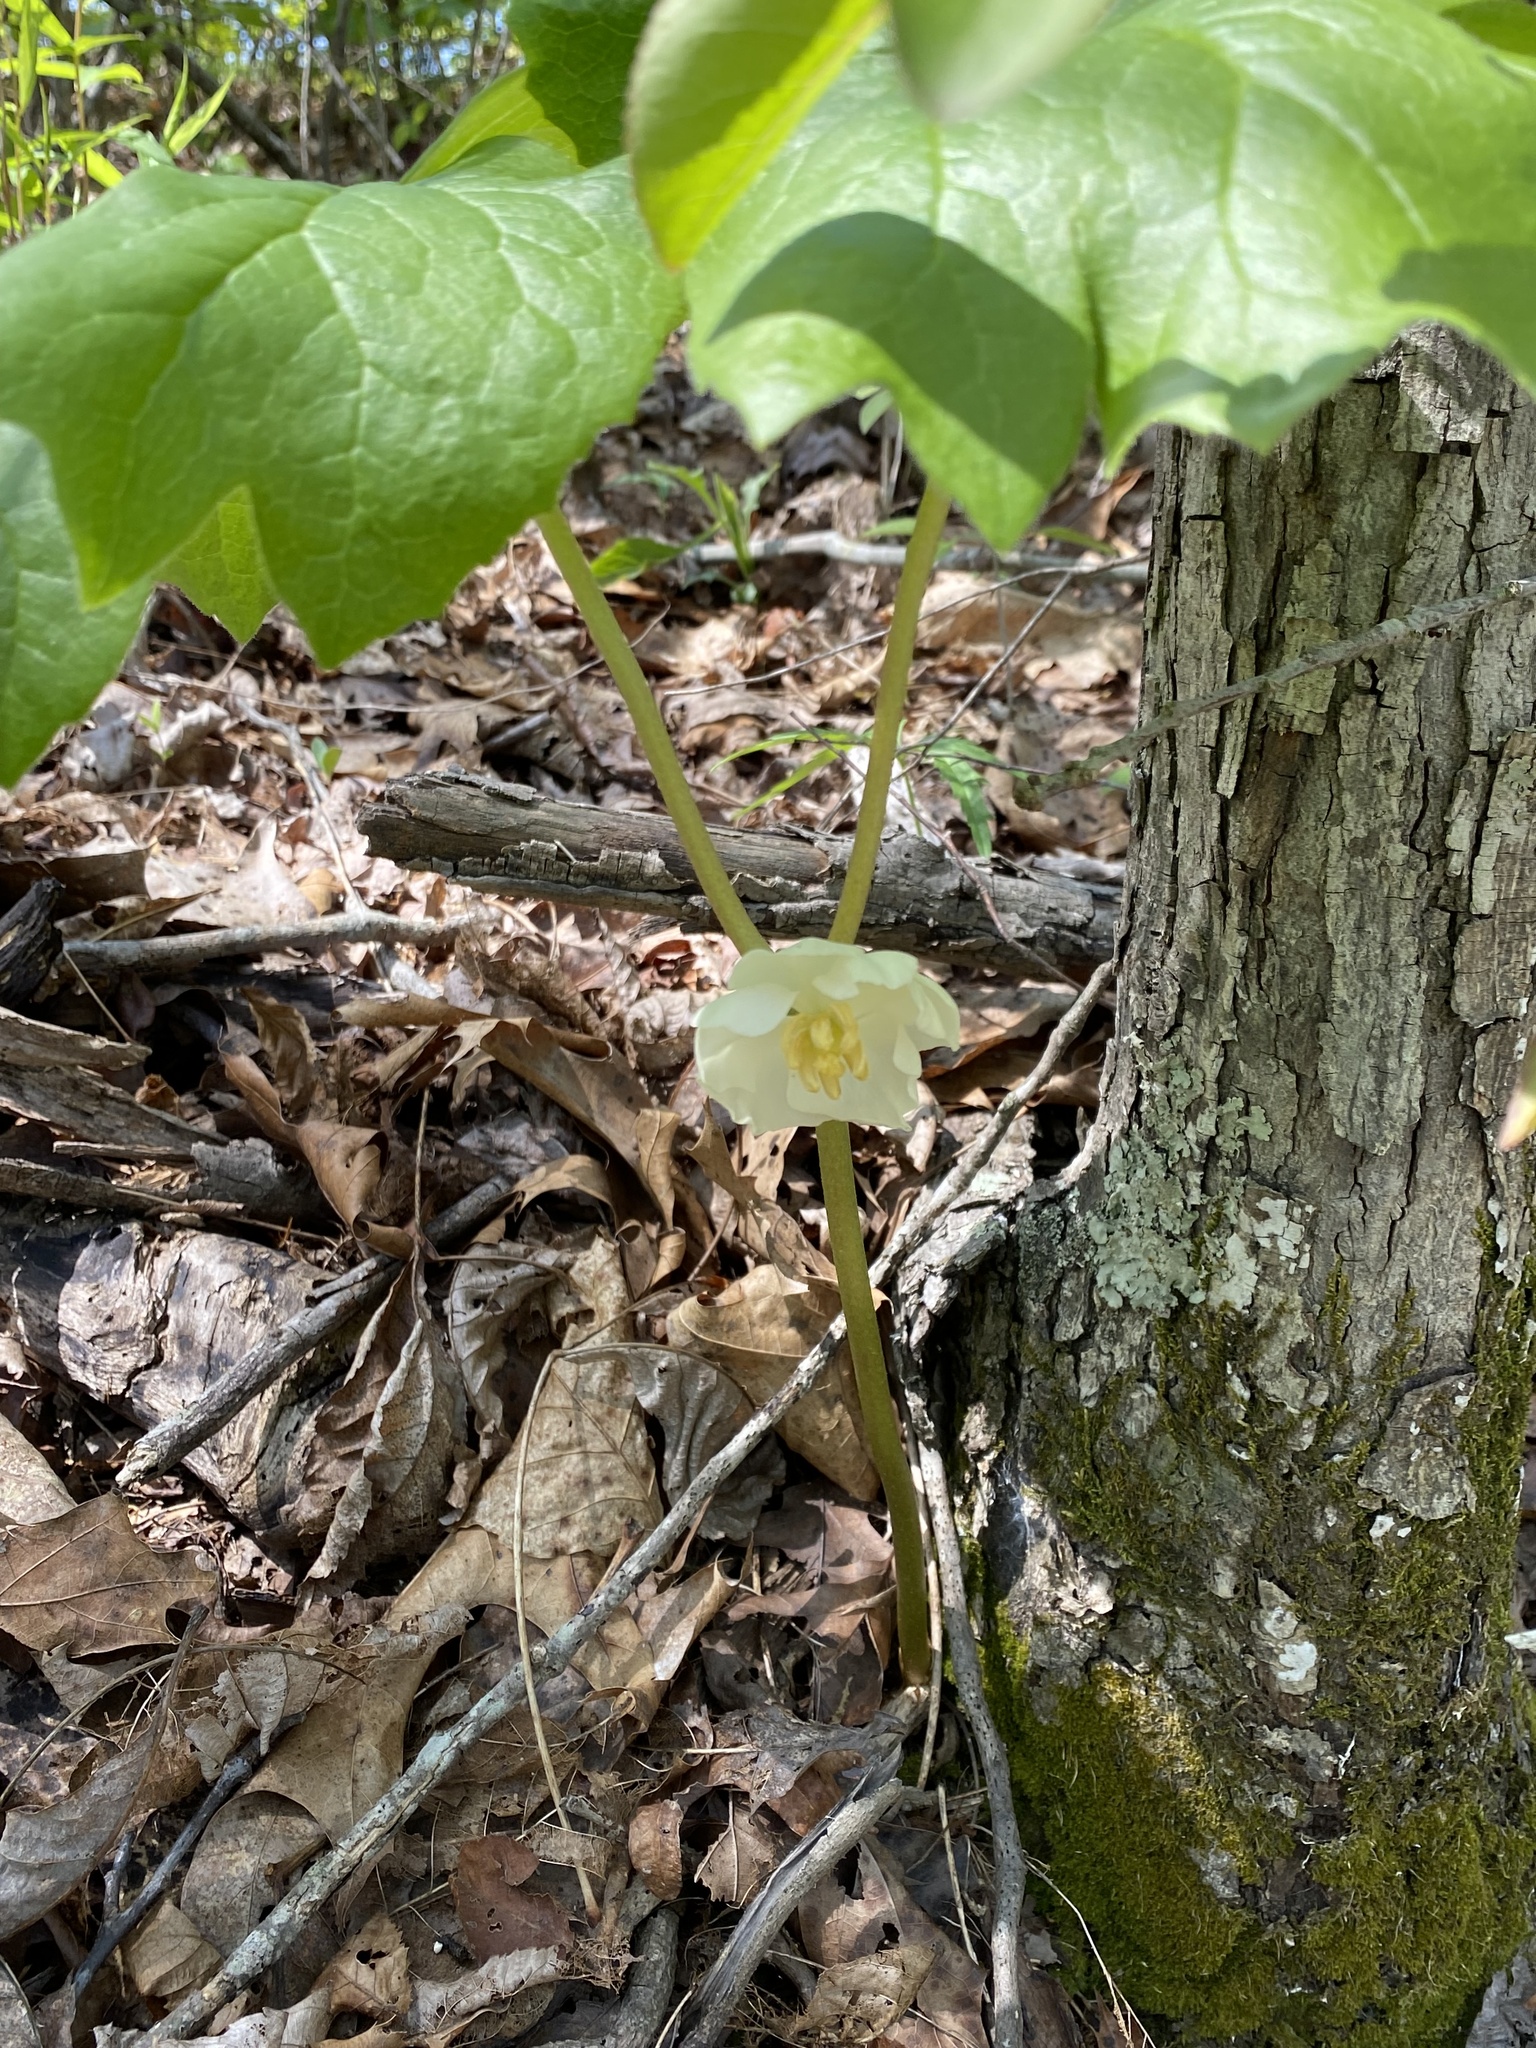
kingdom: Plantae
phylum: Tracheophyta
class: Magnoliopsida
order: Ranunculales
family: Berberidaceae
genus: Podophyllum
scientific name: Podophyllum peltatum
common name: Wild mandrake
